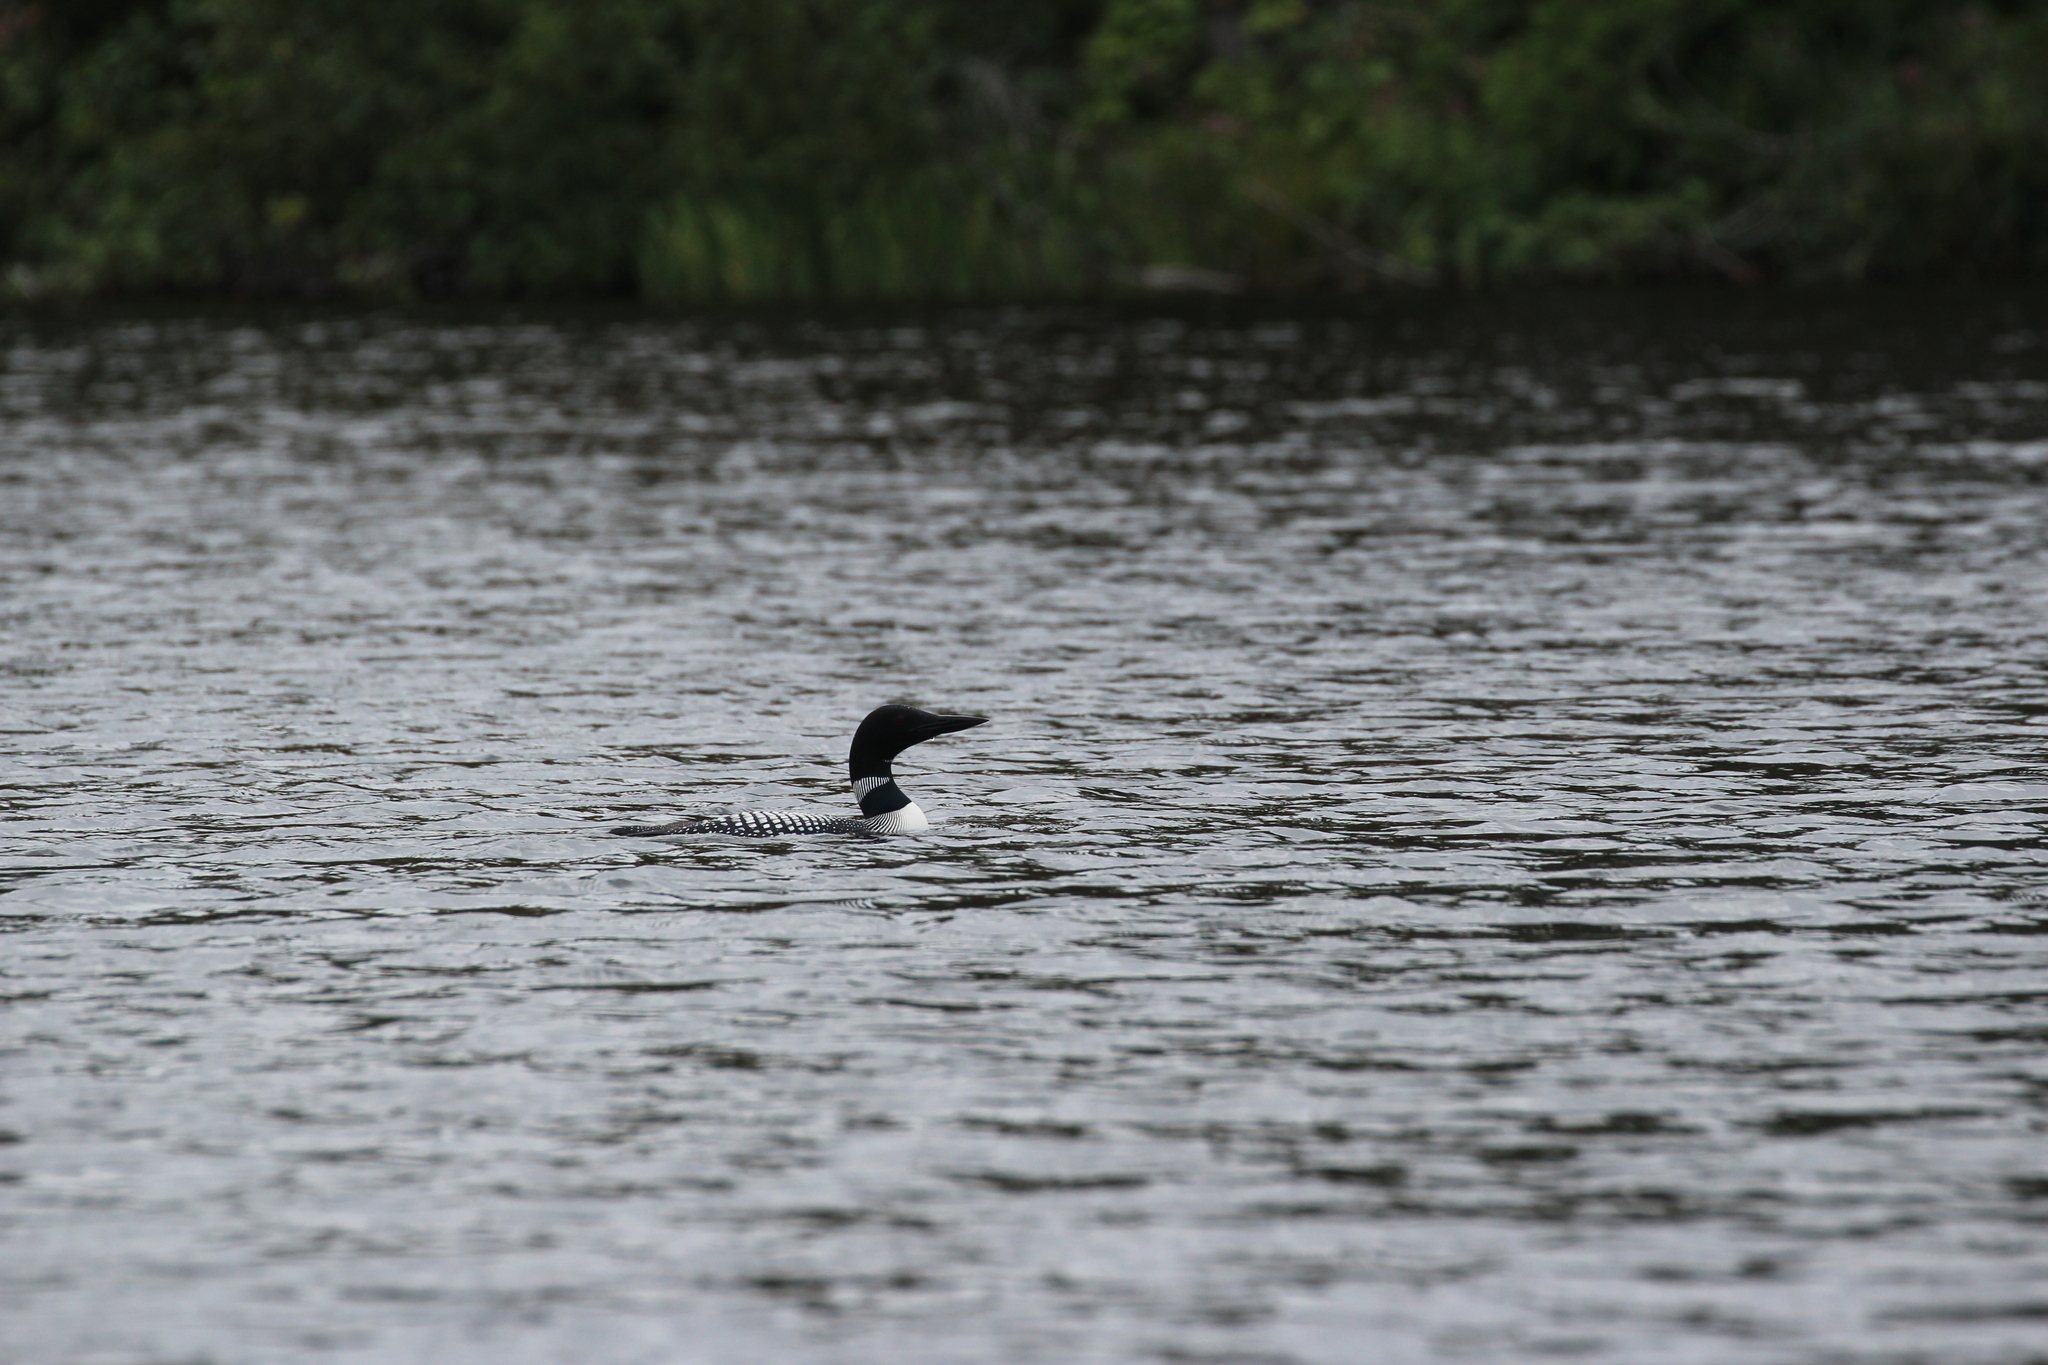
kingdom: Animalia
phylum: Chordata
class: Aves
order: Gaviiformes
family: Gaviidae
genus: Gavia
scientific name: Gavia immer
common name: Common loon
